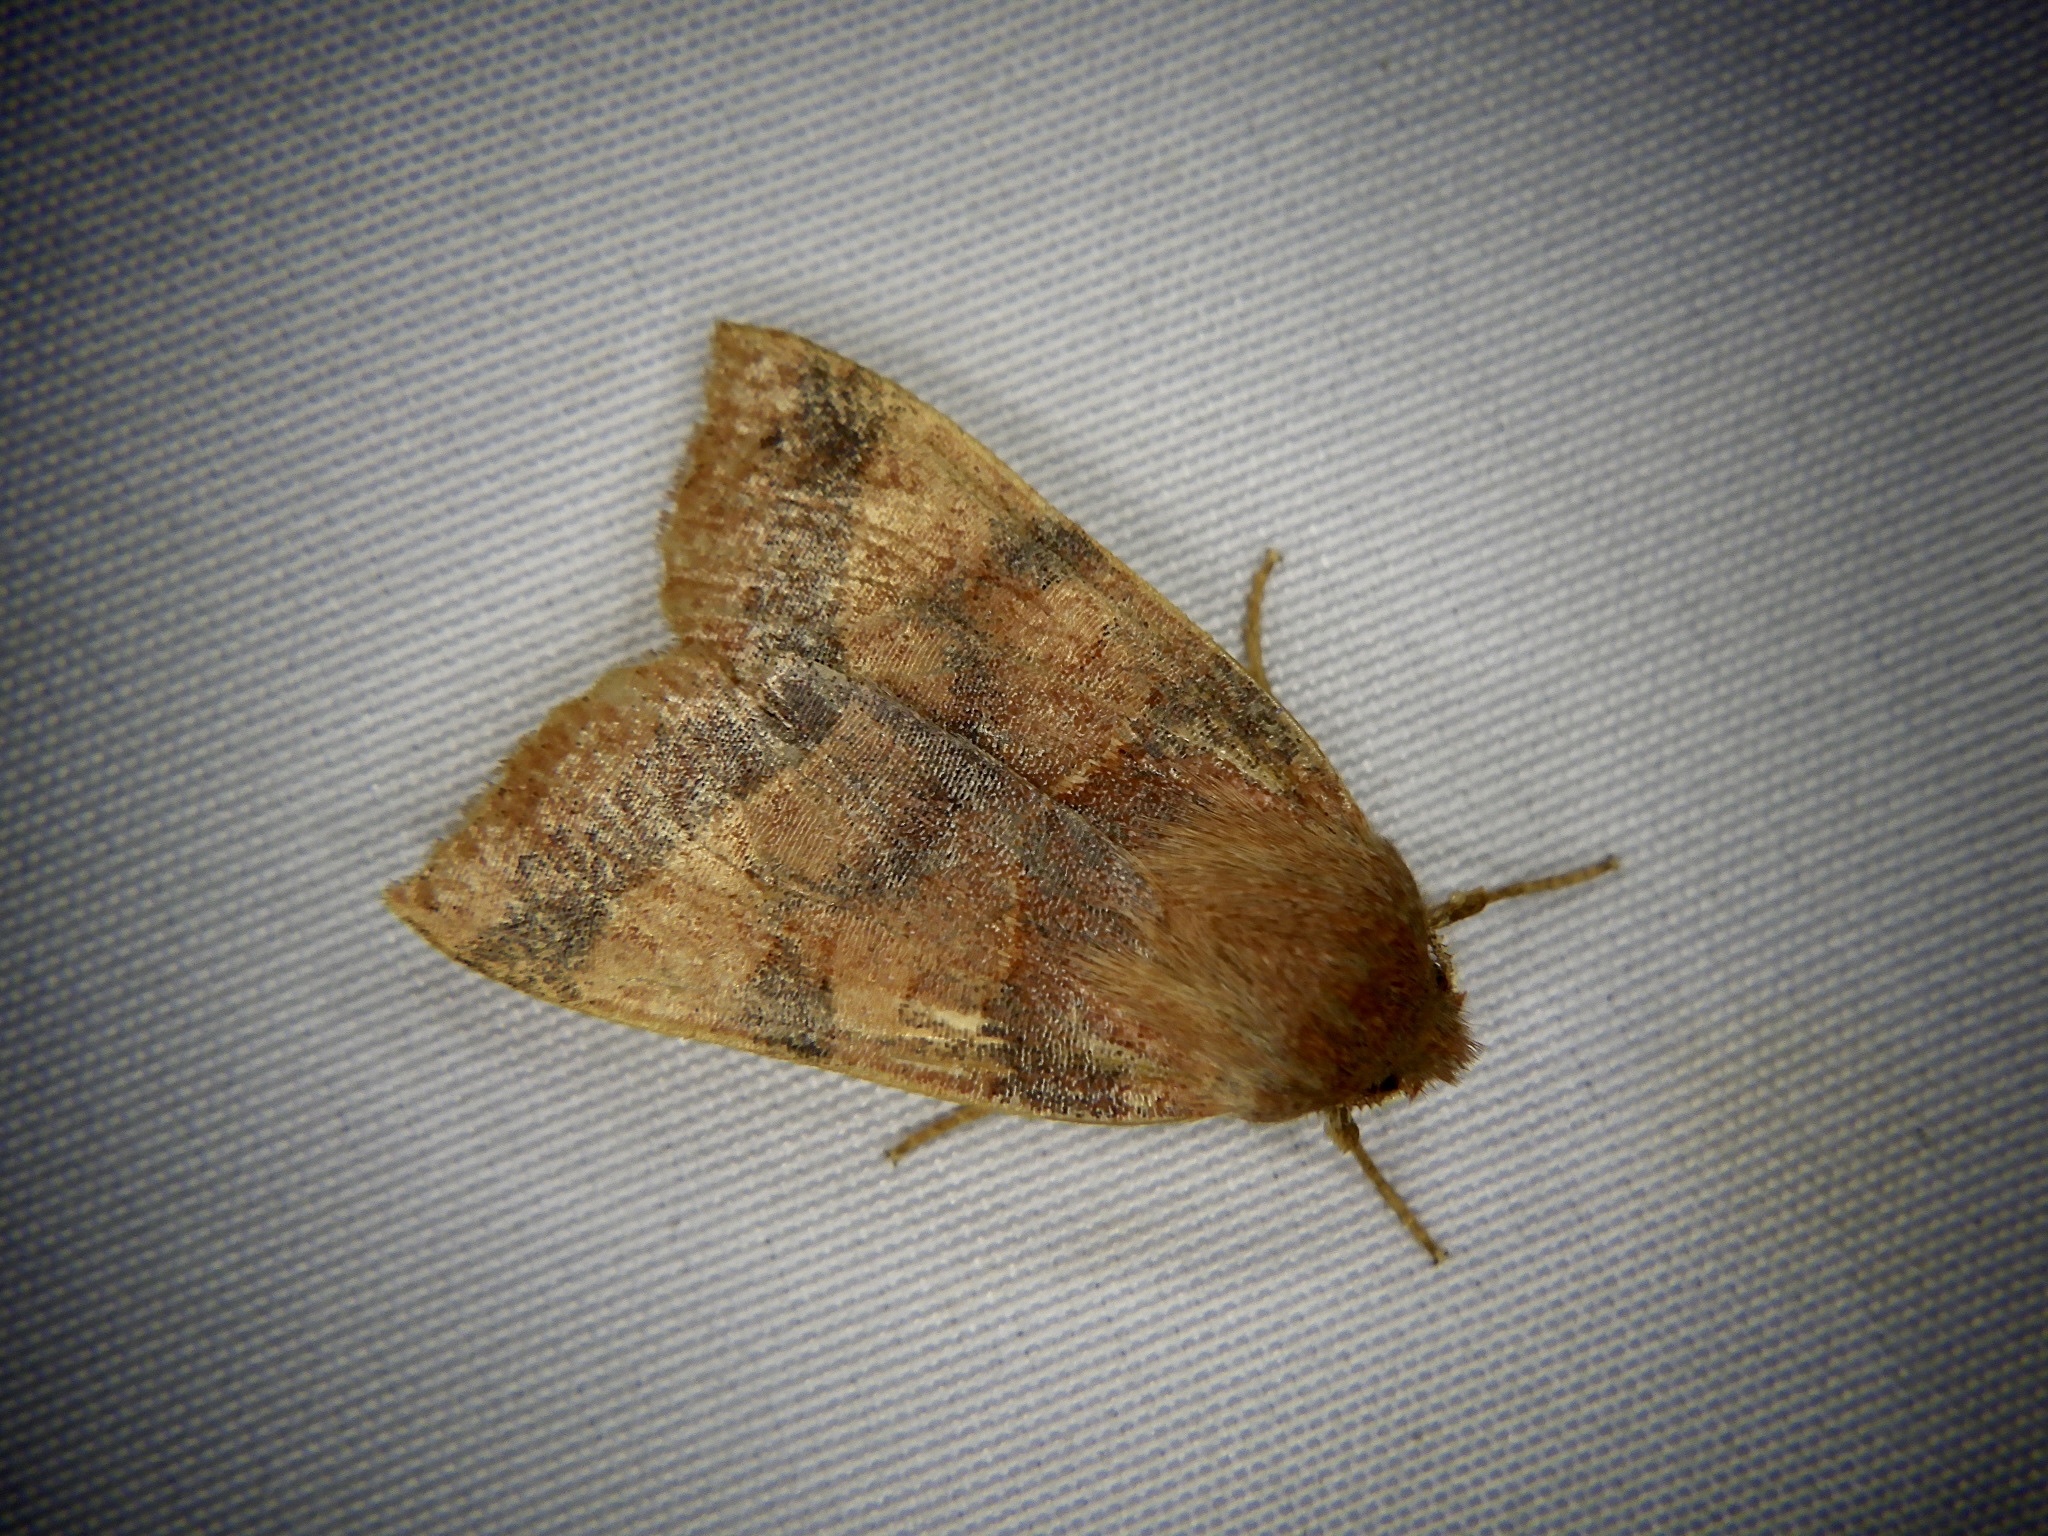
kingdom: Animalia
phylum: Arthropoda
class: Insecta
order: Lepidoptera
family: Noctuidae
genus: Telorta
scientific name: Telorta edentata
